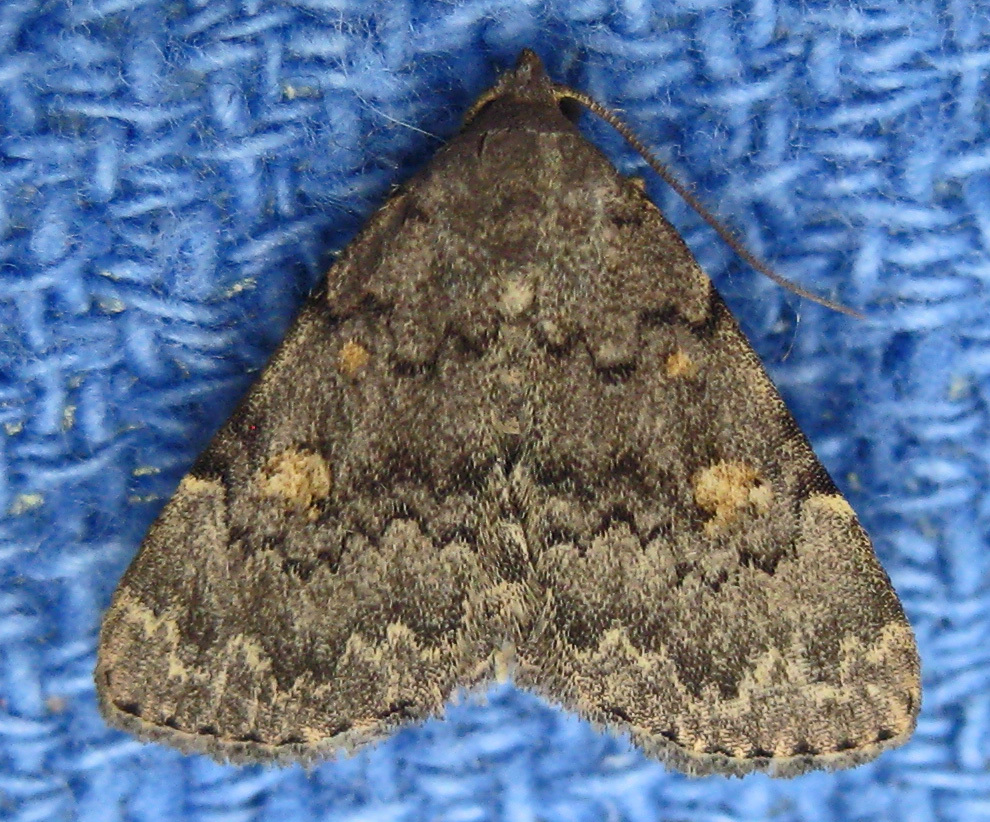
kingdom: Animalia
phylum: Arthropoda
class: Insecta
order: Lepidoptera
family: Erebidae
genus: Idia
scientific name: Idia aemula
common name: Common idia moth
